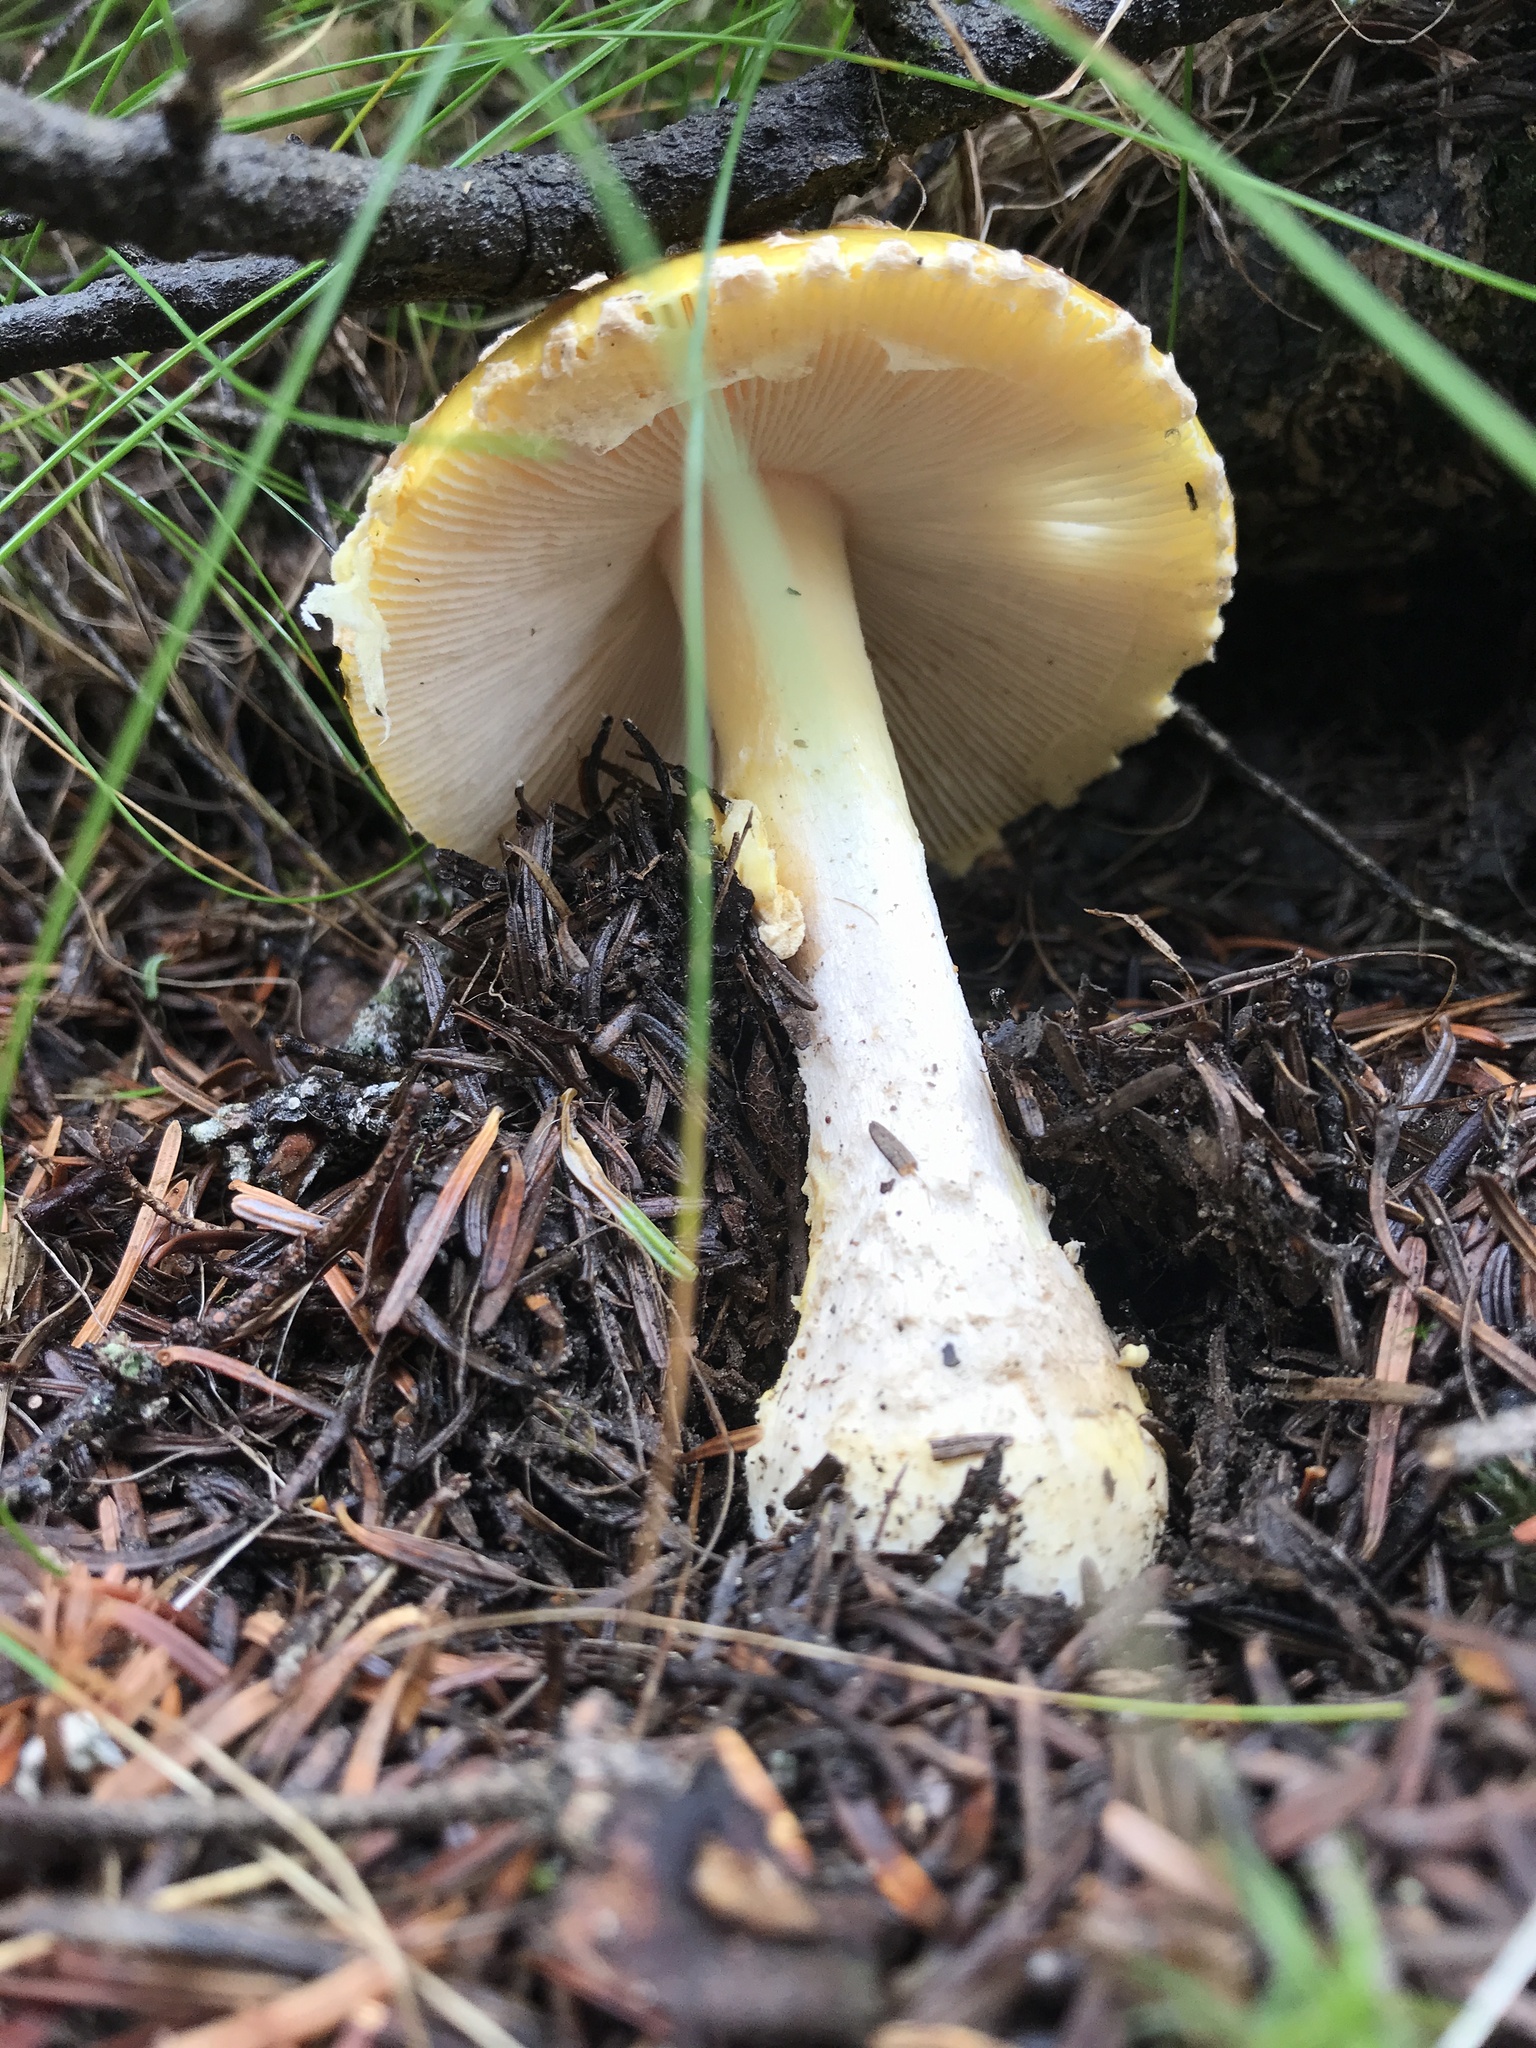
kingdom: Fungi
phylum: Basidiomycota
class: Agaricomycetes
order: Agaricales
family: Amanitaceae
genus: Amanita
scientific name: Amanita muscaria
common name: Fly agaric
